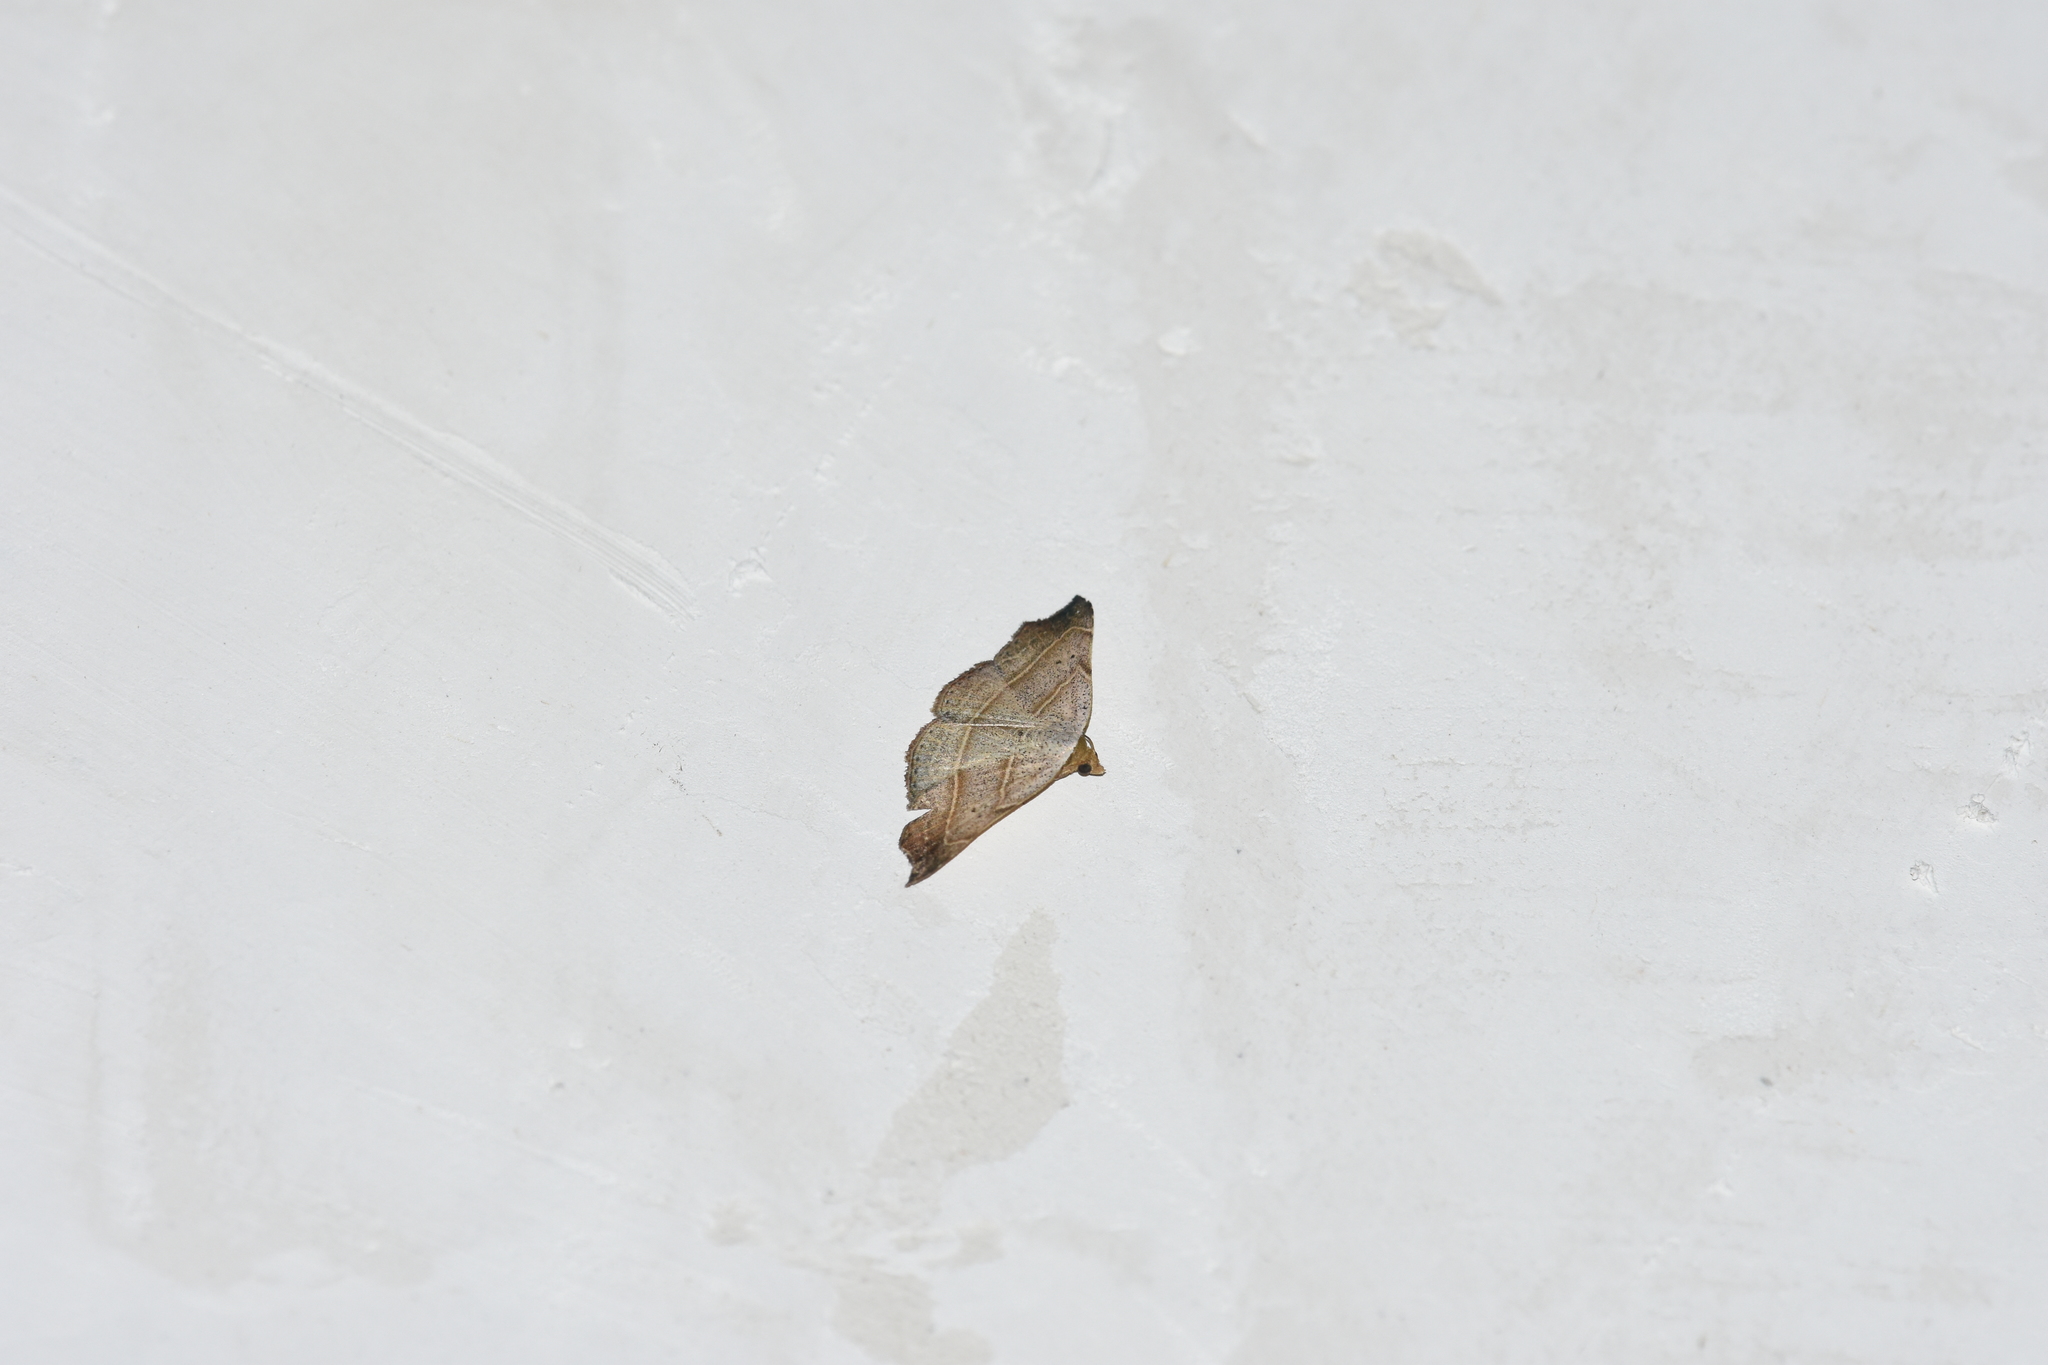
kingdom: Animalia
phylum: Arthropoda
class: Insecta
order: Lepidoptera
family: Erebidae
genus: Laspeyria
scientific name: Laspeyria flexula
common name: Beautiful hook-tip
